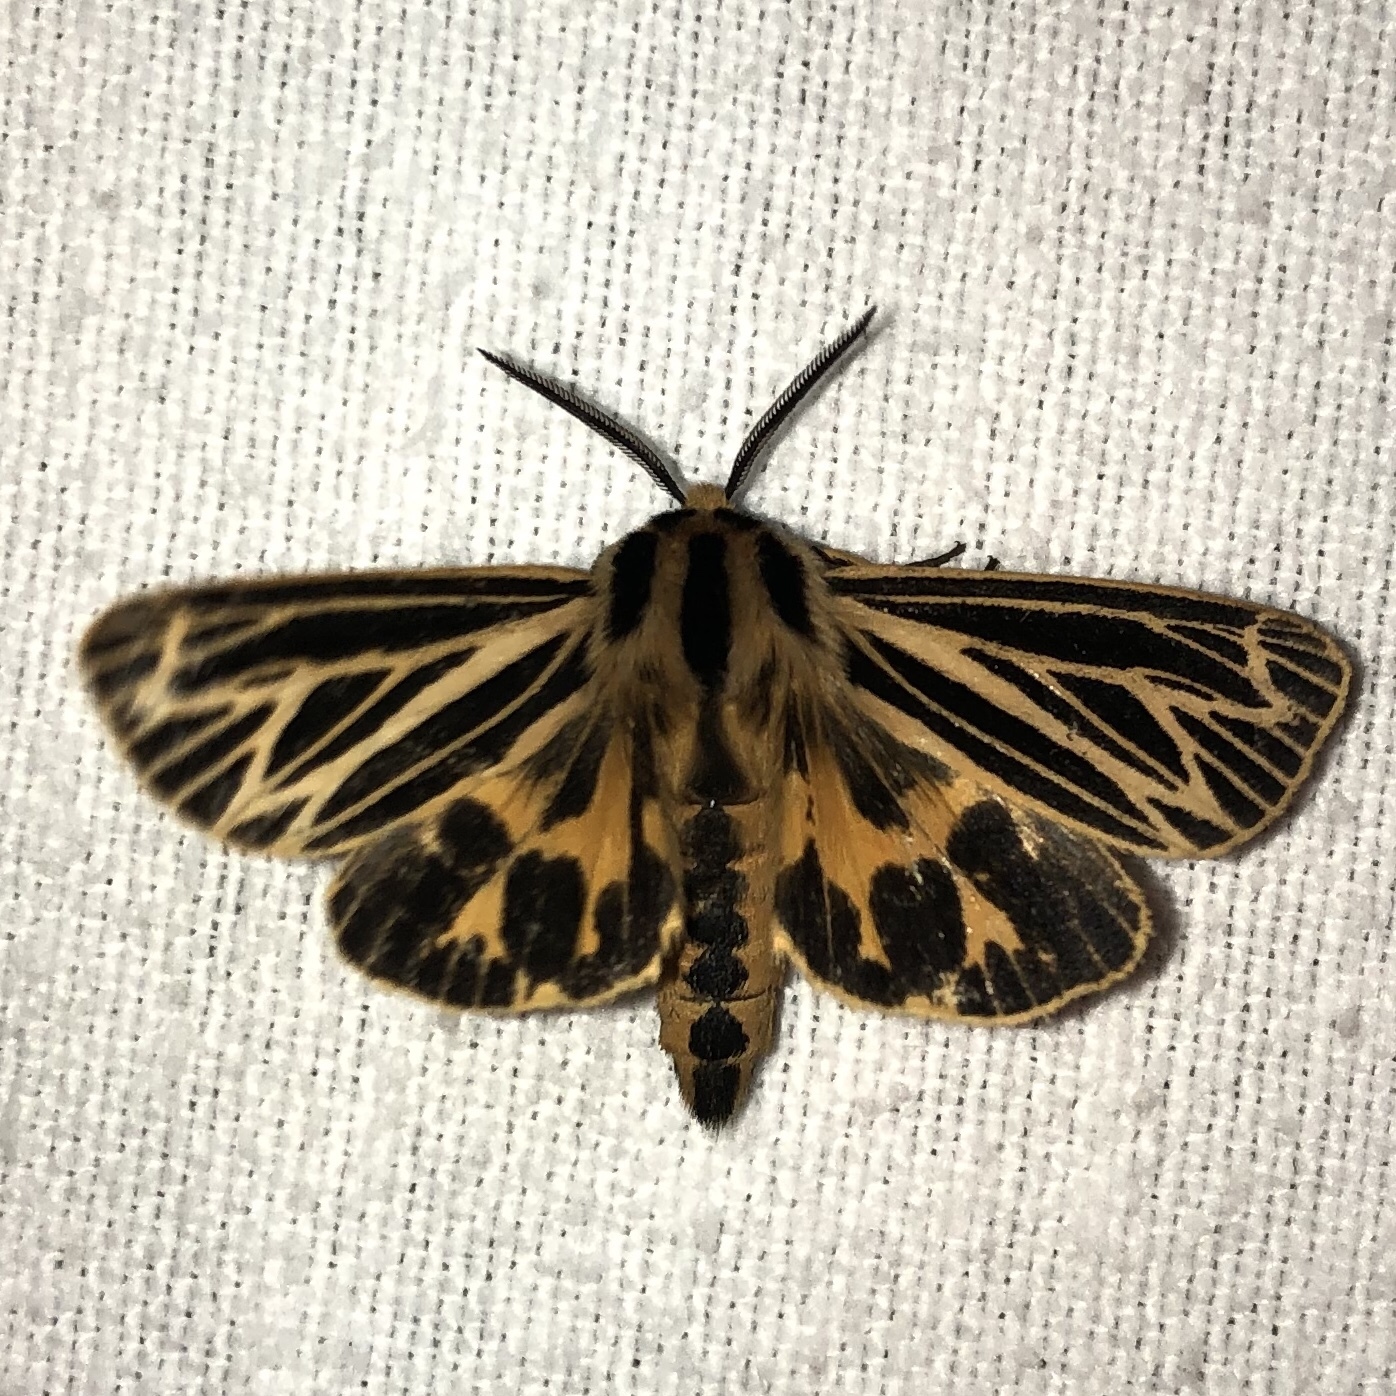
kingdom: Animalia
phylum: Arthropoda
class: Insecta
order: Lepidoptera
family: Erebidae
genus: Grammia
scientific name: Grammia virguncula
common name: Little tiger moth
